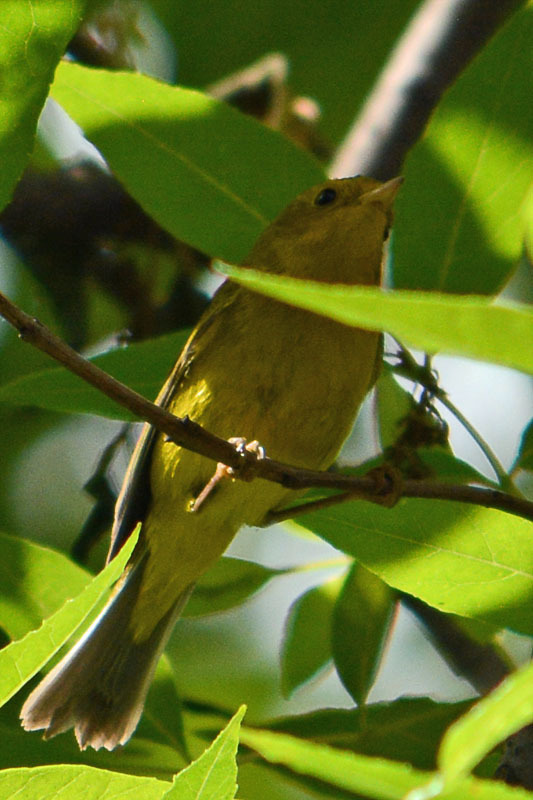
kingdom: Animalia
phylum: Chordata
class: Aves
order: Passeriformes
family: Parulidae
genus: Cardellina
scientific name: Cardellina pusilla
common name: Wilson's warbler
